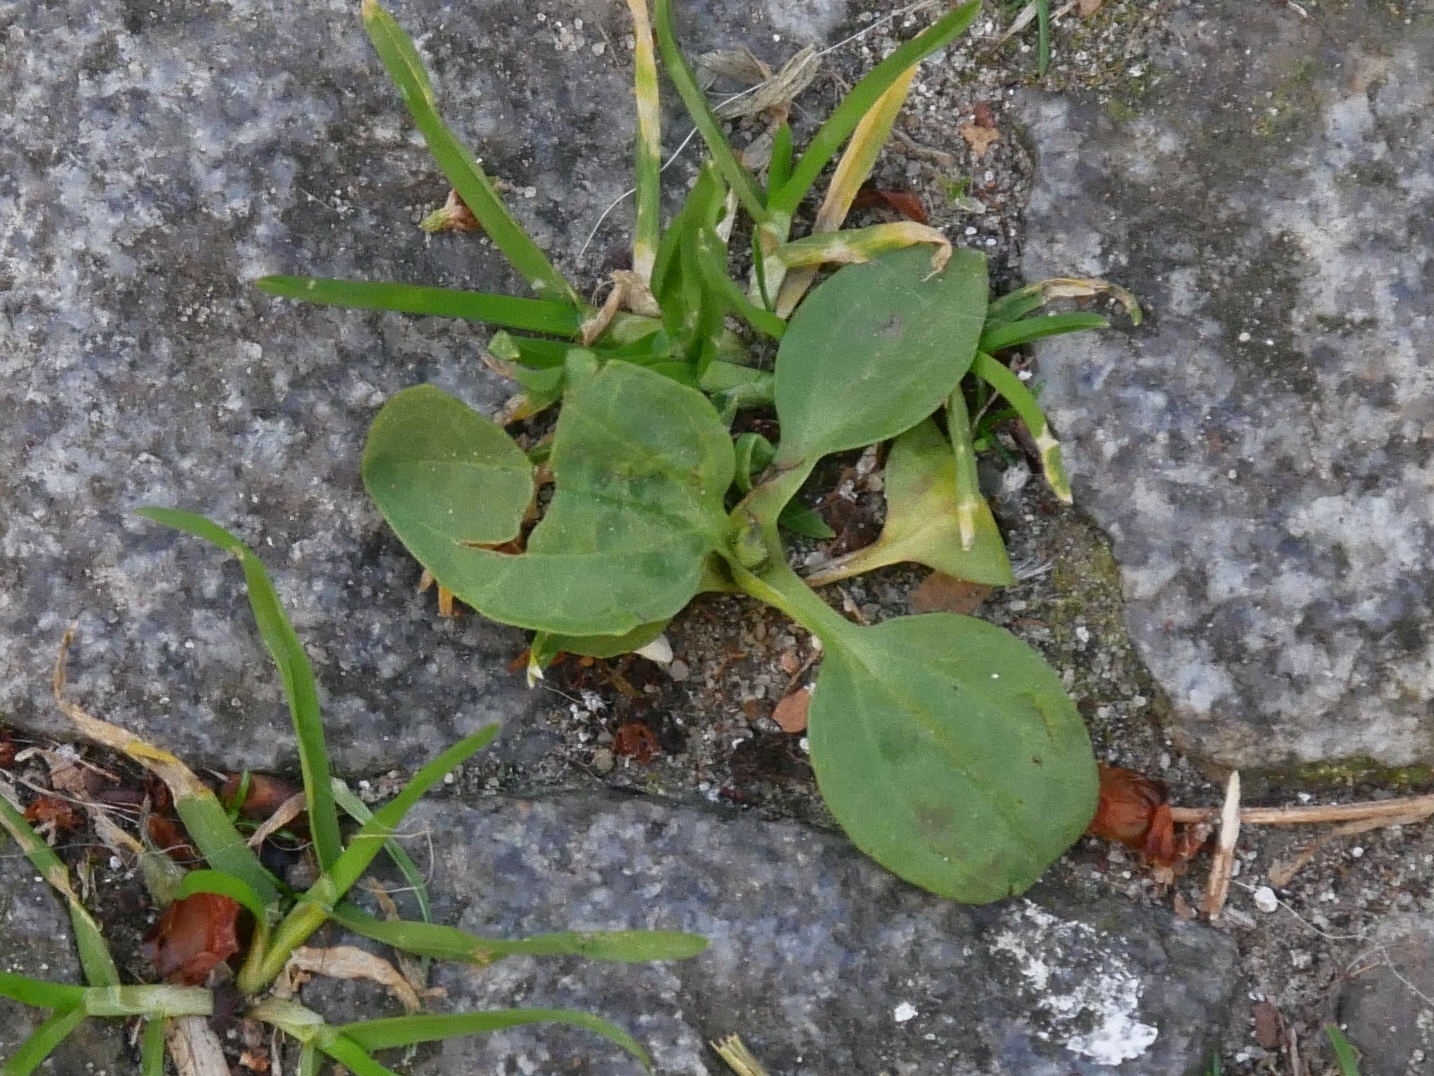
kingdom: Plantae
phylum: Tracheophyta
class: Magnoliopsida
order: Lamiales
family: Plantaginaceae
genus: Plantago
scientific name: Plantago major
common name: Common plantain
